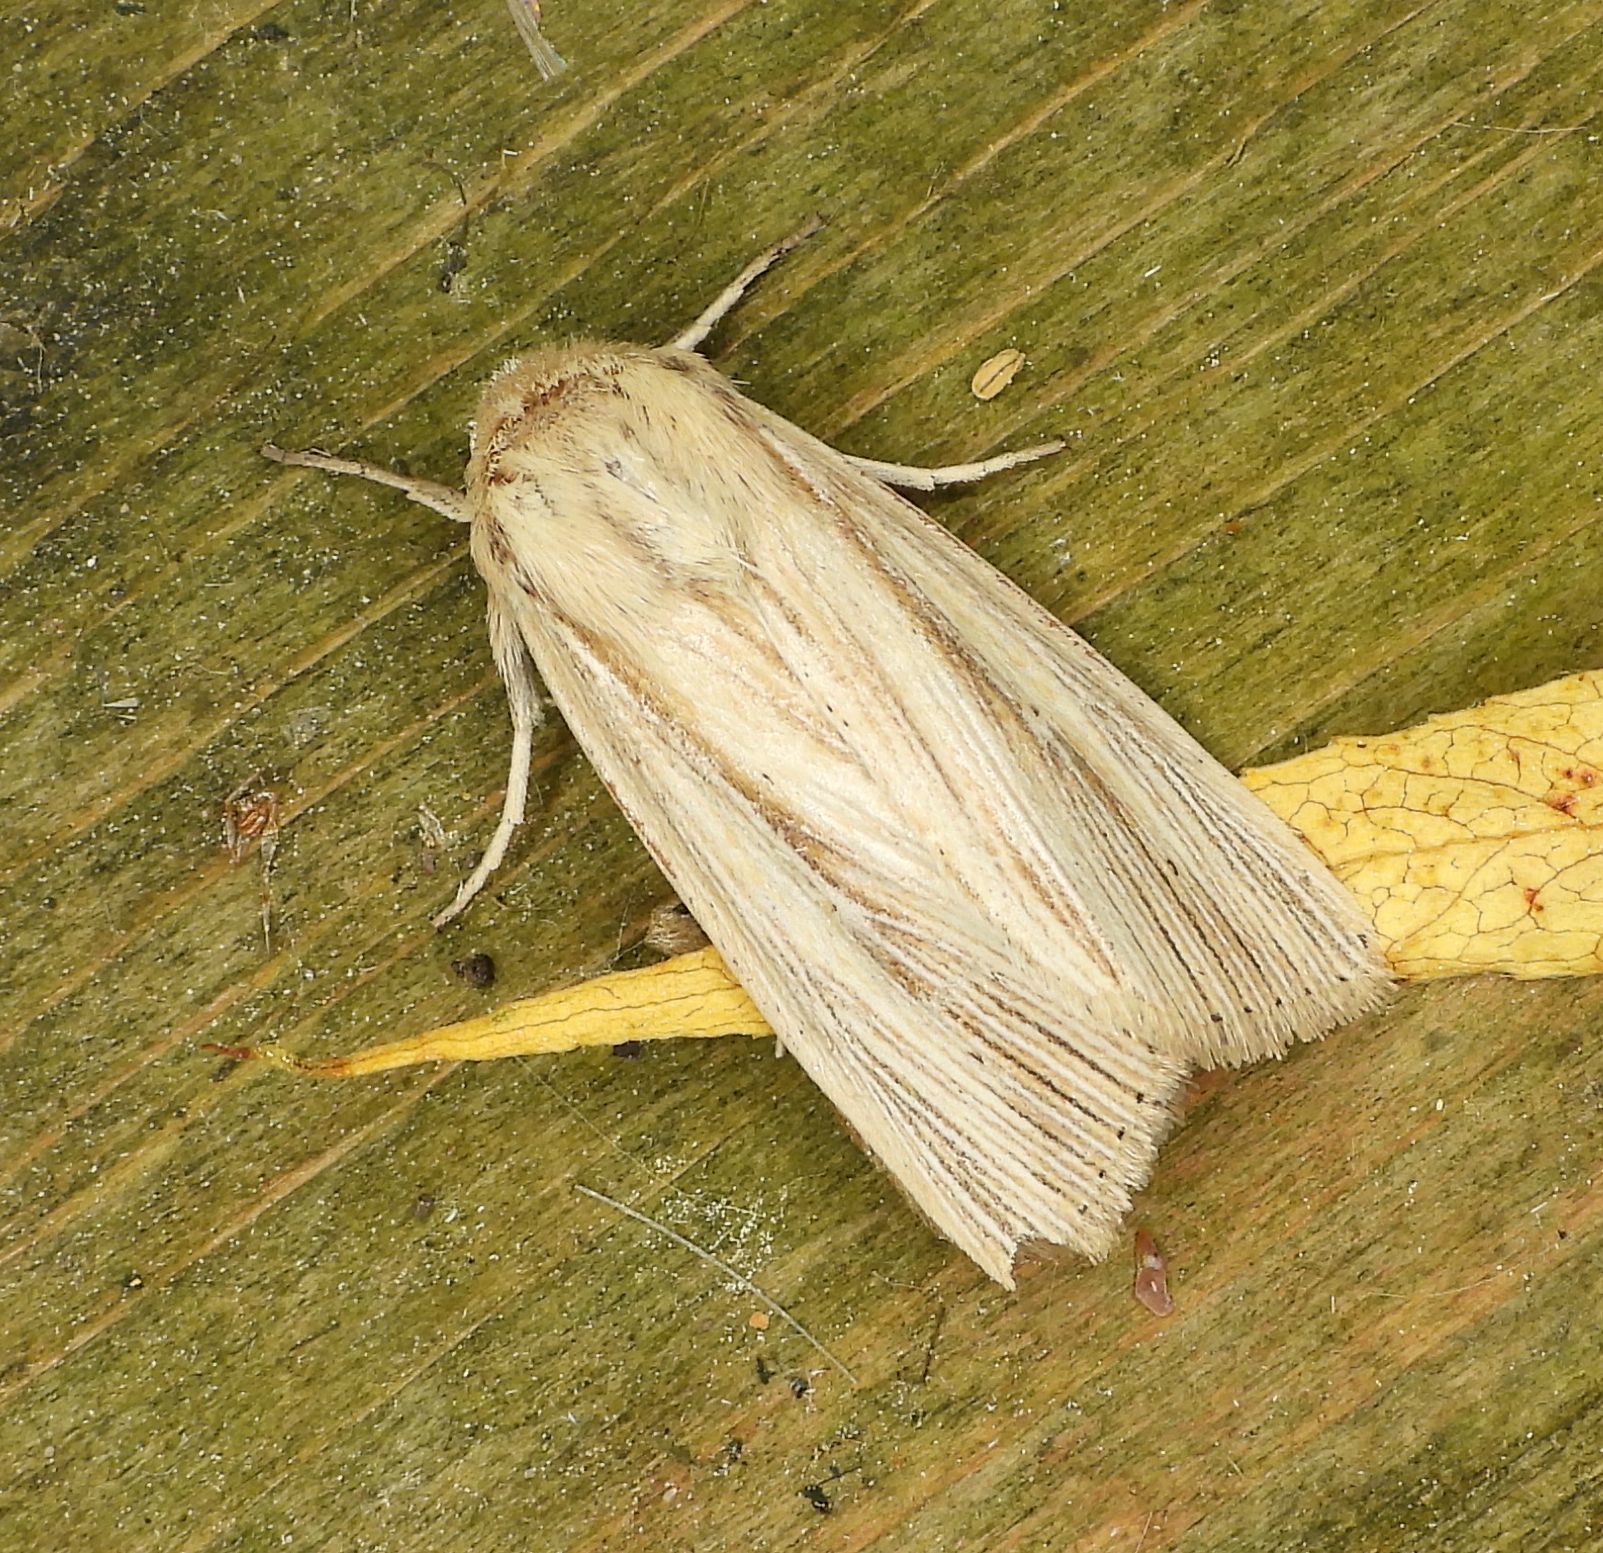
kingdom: Animalia
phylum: Arthropoda
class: Insecta
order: Lepidoptera
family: Noctuidae
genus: Mythimna
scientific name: Mythimna oxygala
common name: Lesser wainscot
